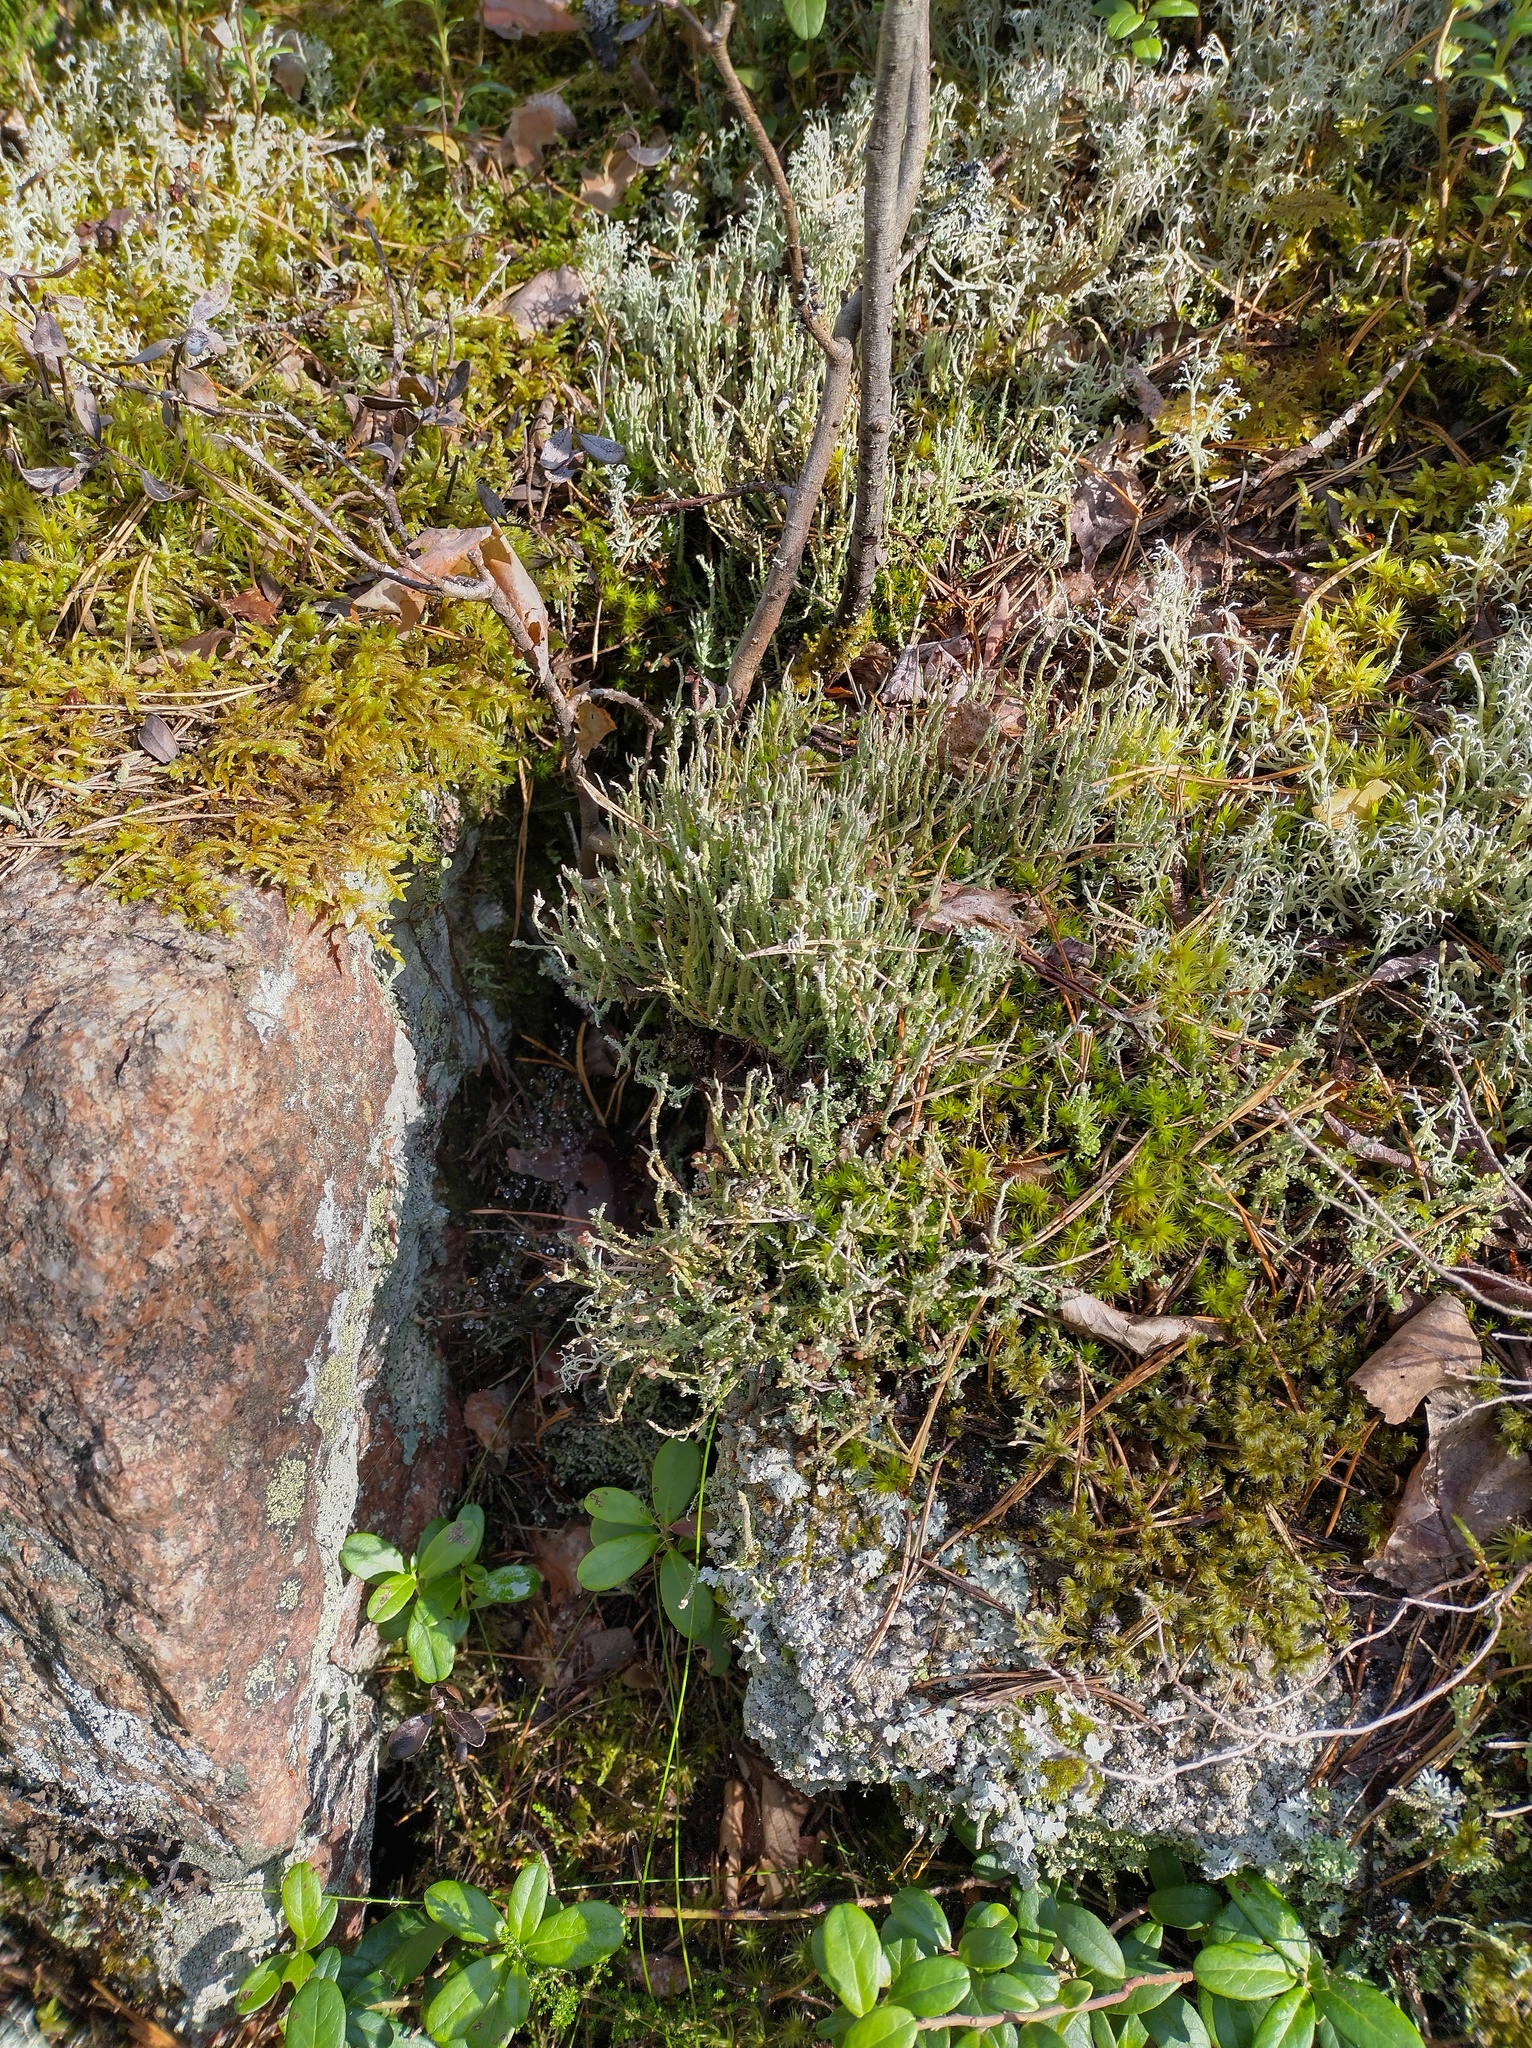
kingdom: Fungi
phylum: Ascomycota
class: Lecanoromycetes
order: Lecanorales
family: Cladoniaceae
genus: Cladonia
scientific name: Cladonia gracilis
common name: Smooth clad lichen
